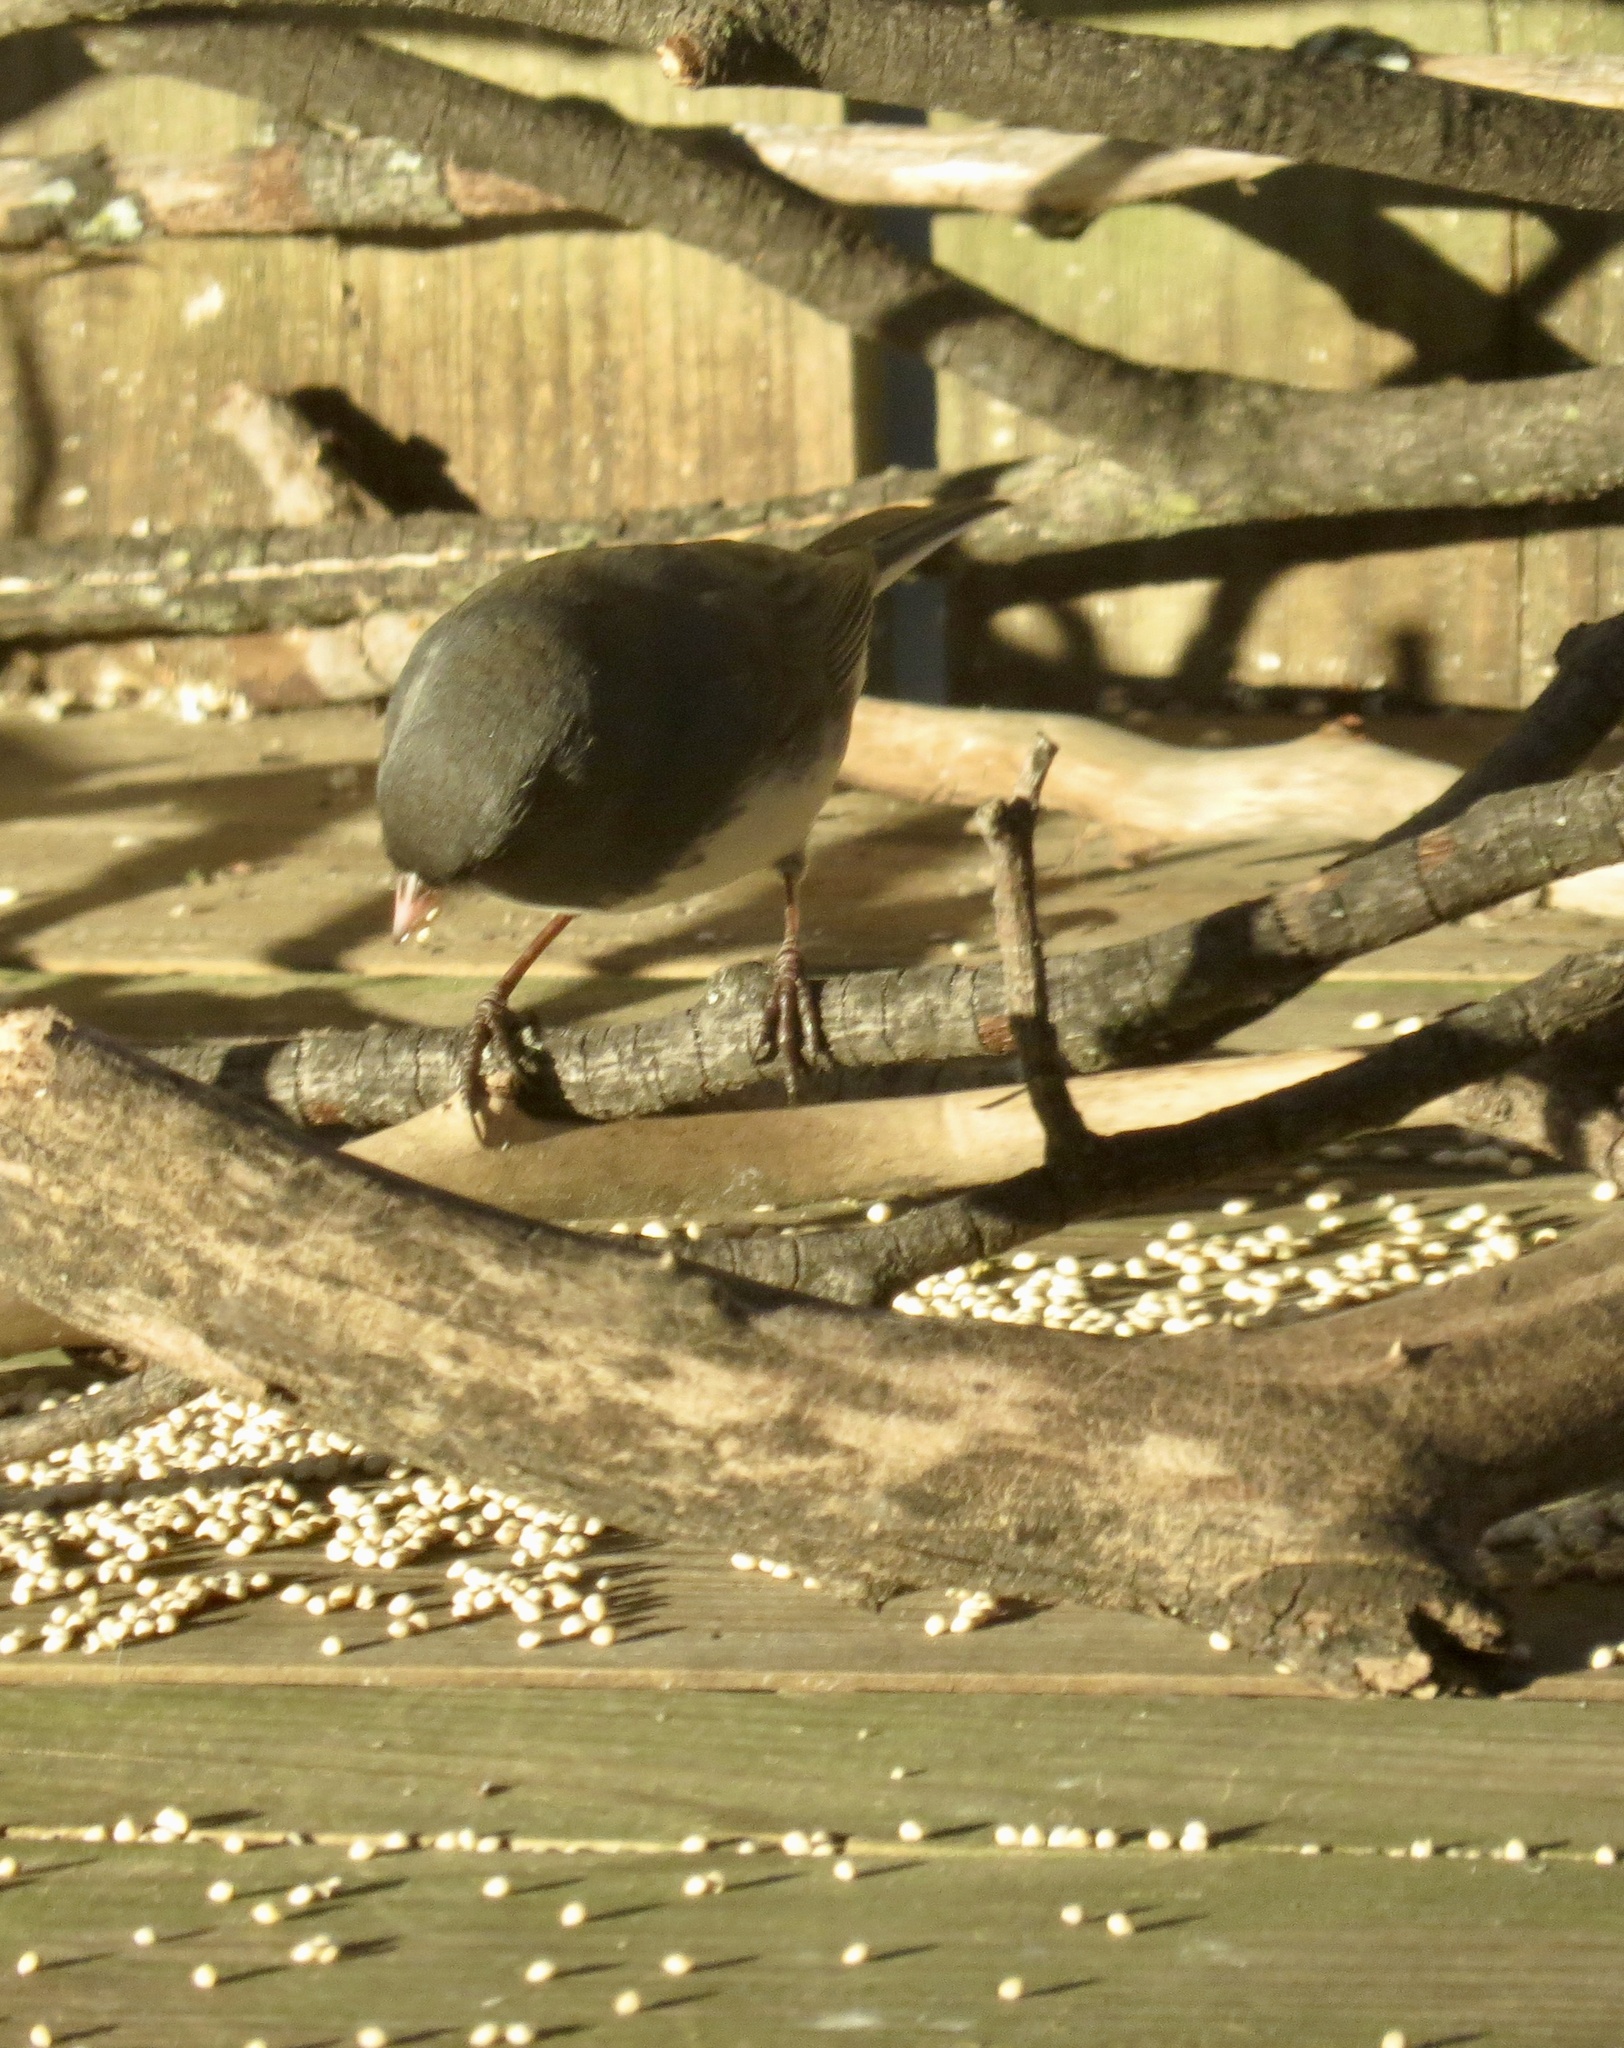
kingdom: Animalia
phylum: Chordata
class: Aves
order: Passeriformes
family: Passerellidae
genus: Junco
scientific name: Junco hyemalis
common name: Dark-eyed junco
